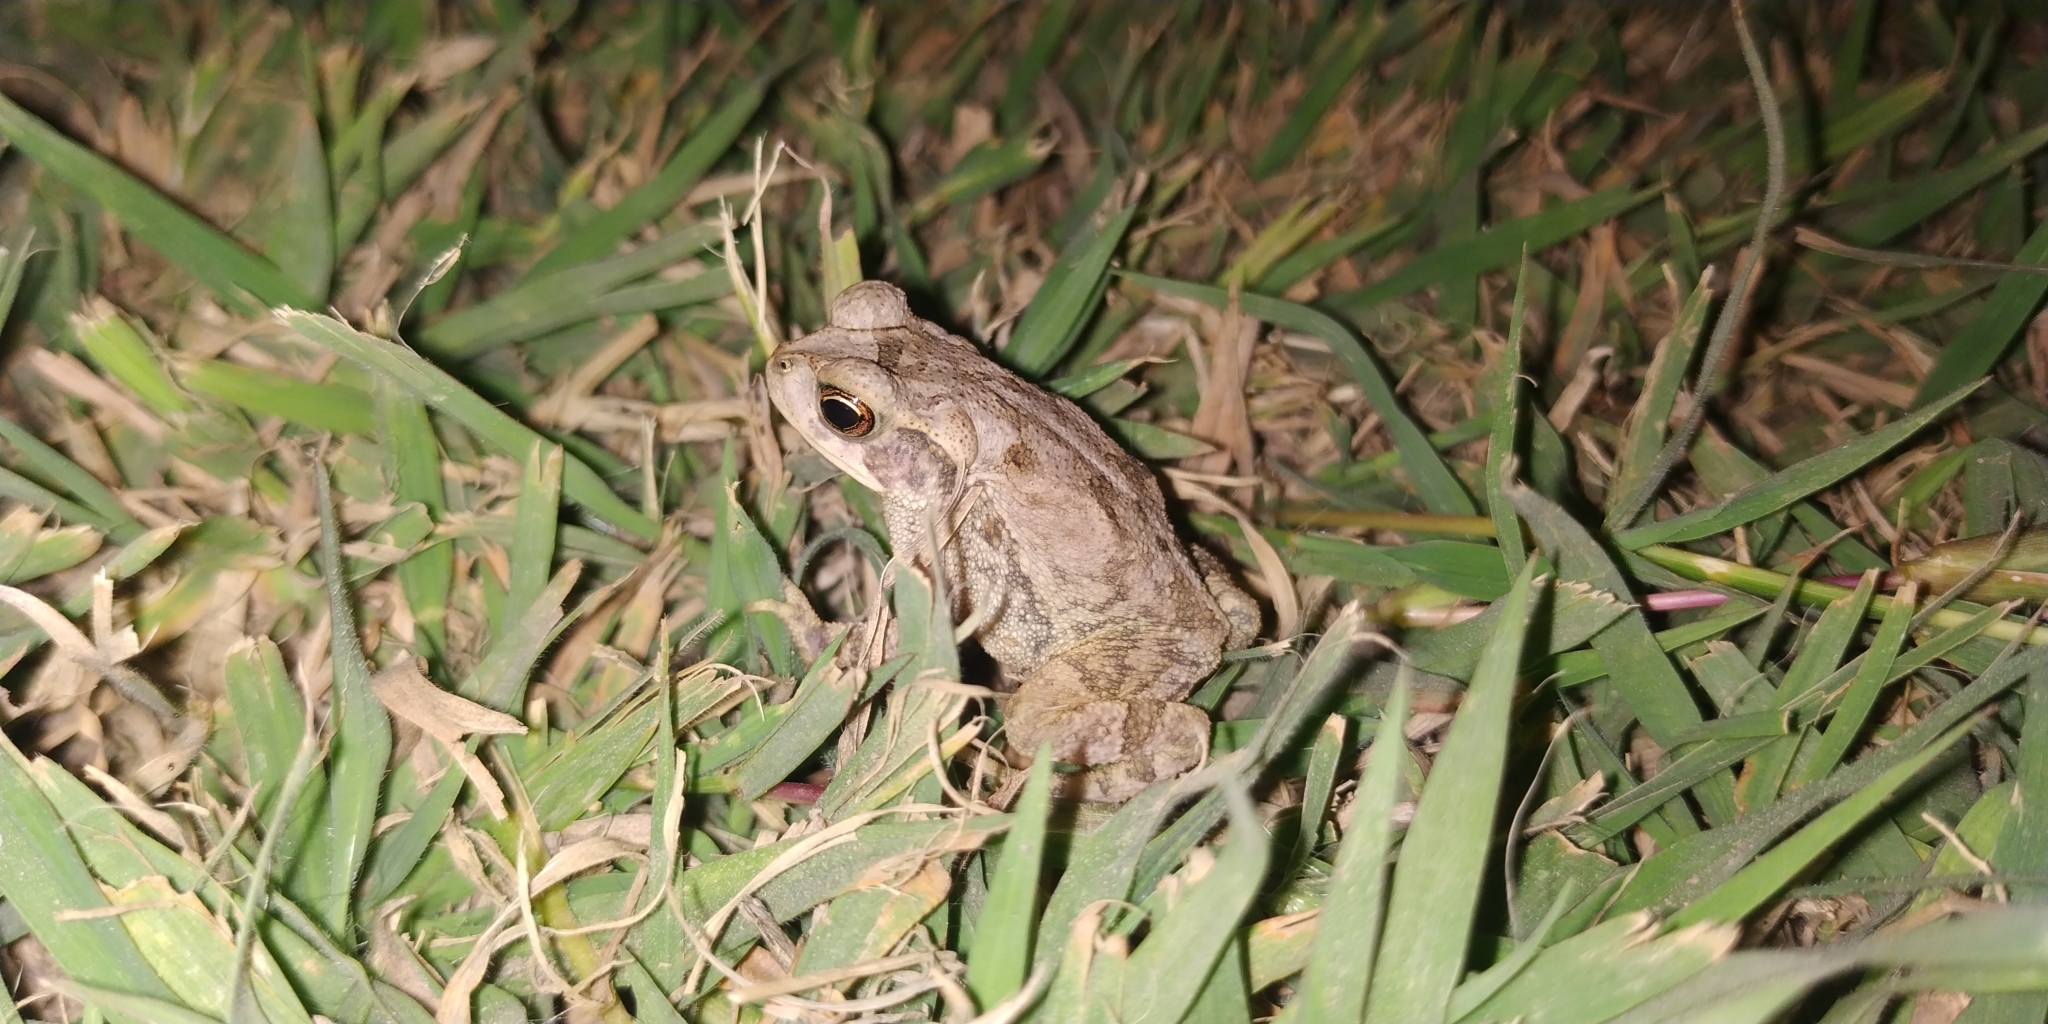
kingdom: Animalia
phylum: Chordata
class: Amphibia
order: Anura
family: Bufonidae
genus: Incilius
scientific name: Incilius nebulifer
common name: Gulf coast toad
